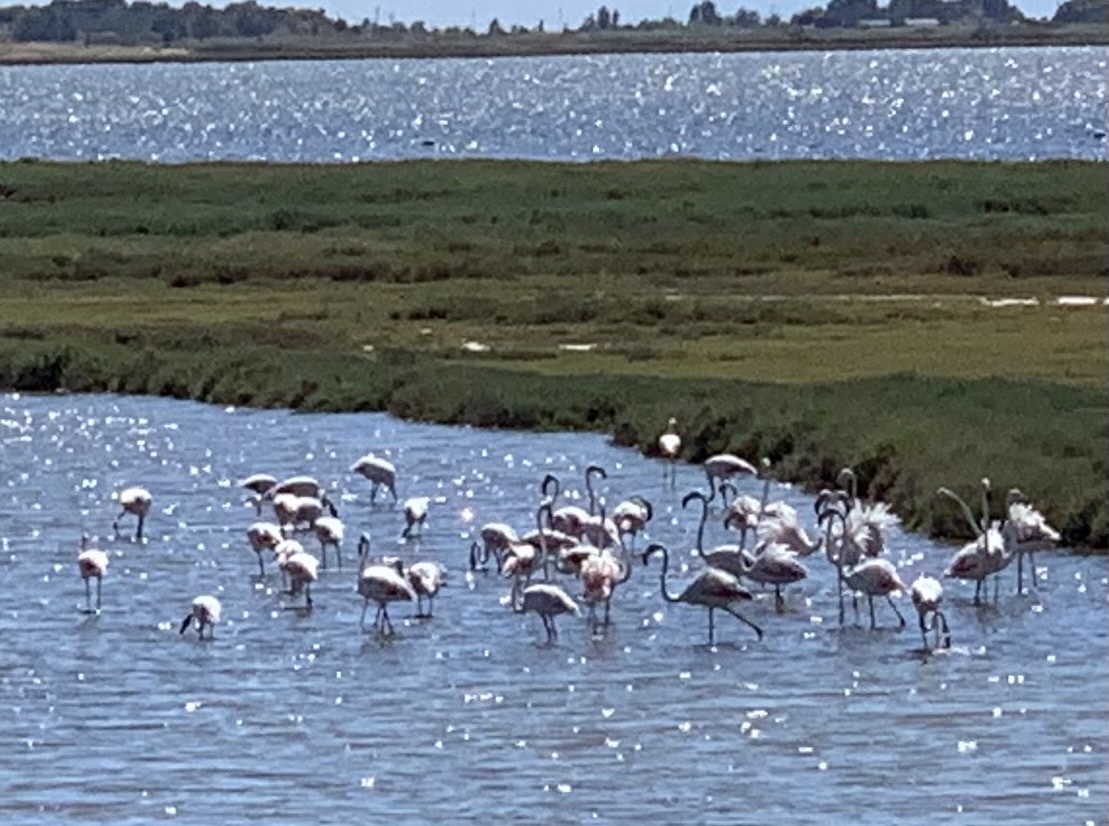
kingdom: Animalia
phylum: Chordata
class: Aves
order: Phoenicopteriformes
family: Phoenicopteridae
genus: Phoenicopterus
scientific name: Phoenicopterus roseus
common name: Greater flamingo
